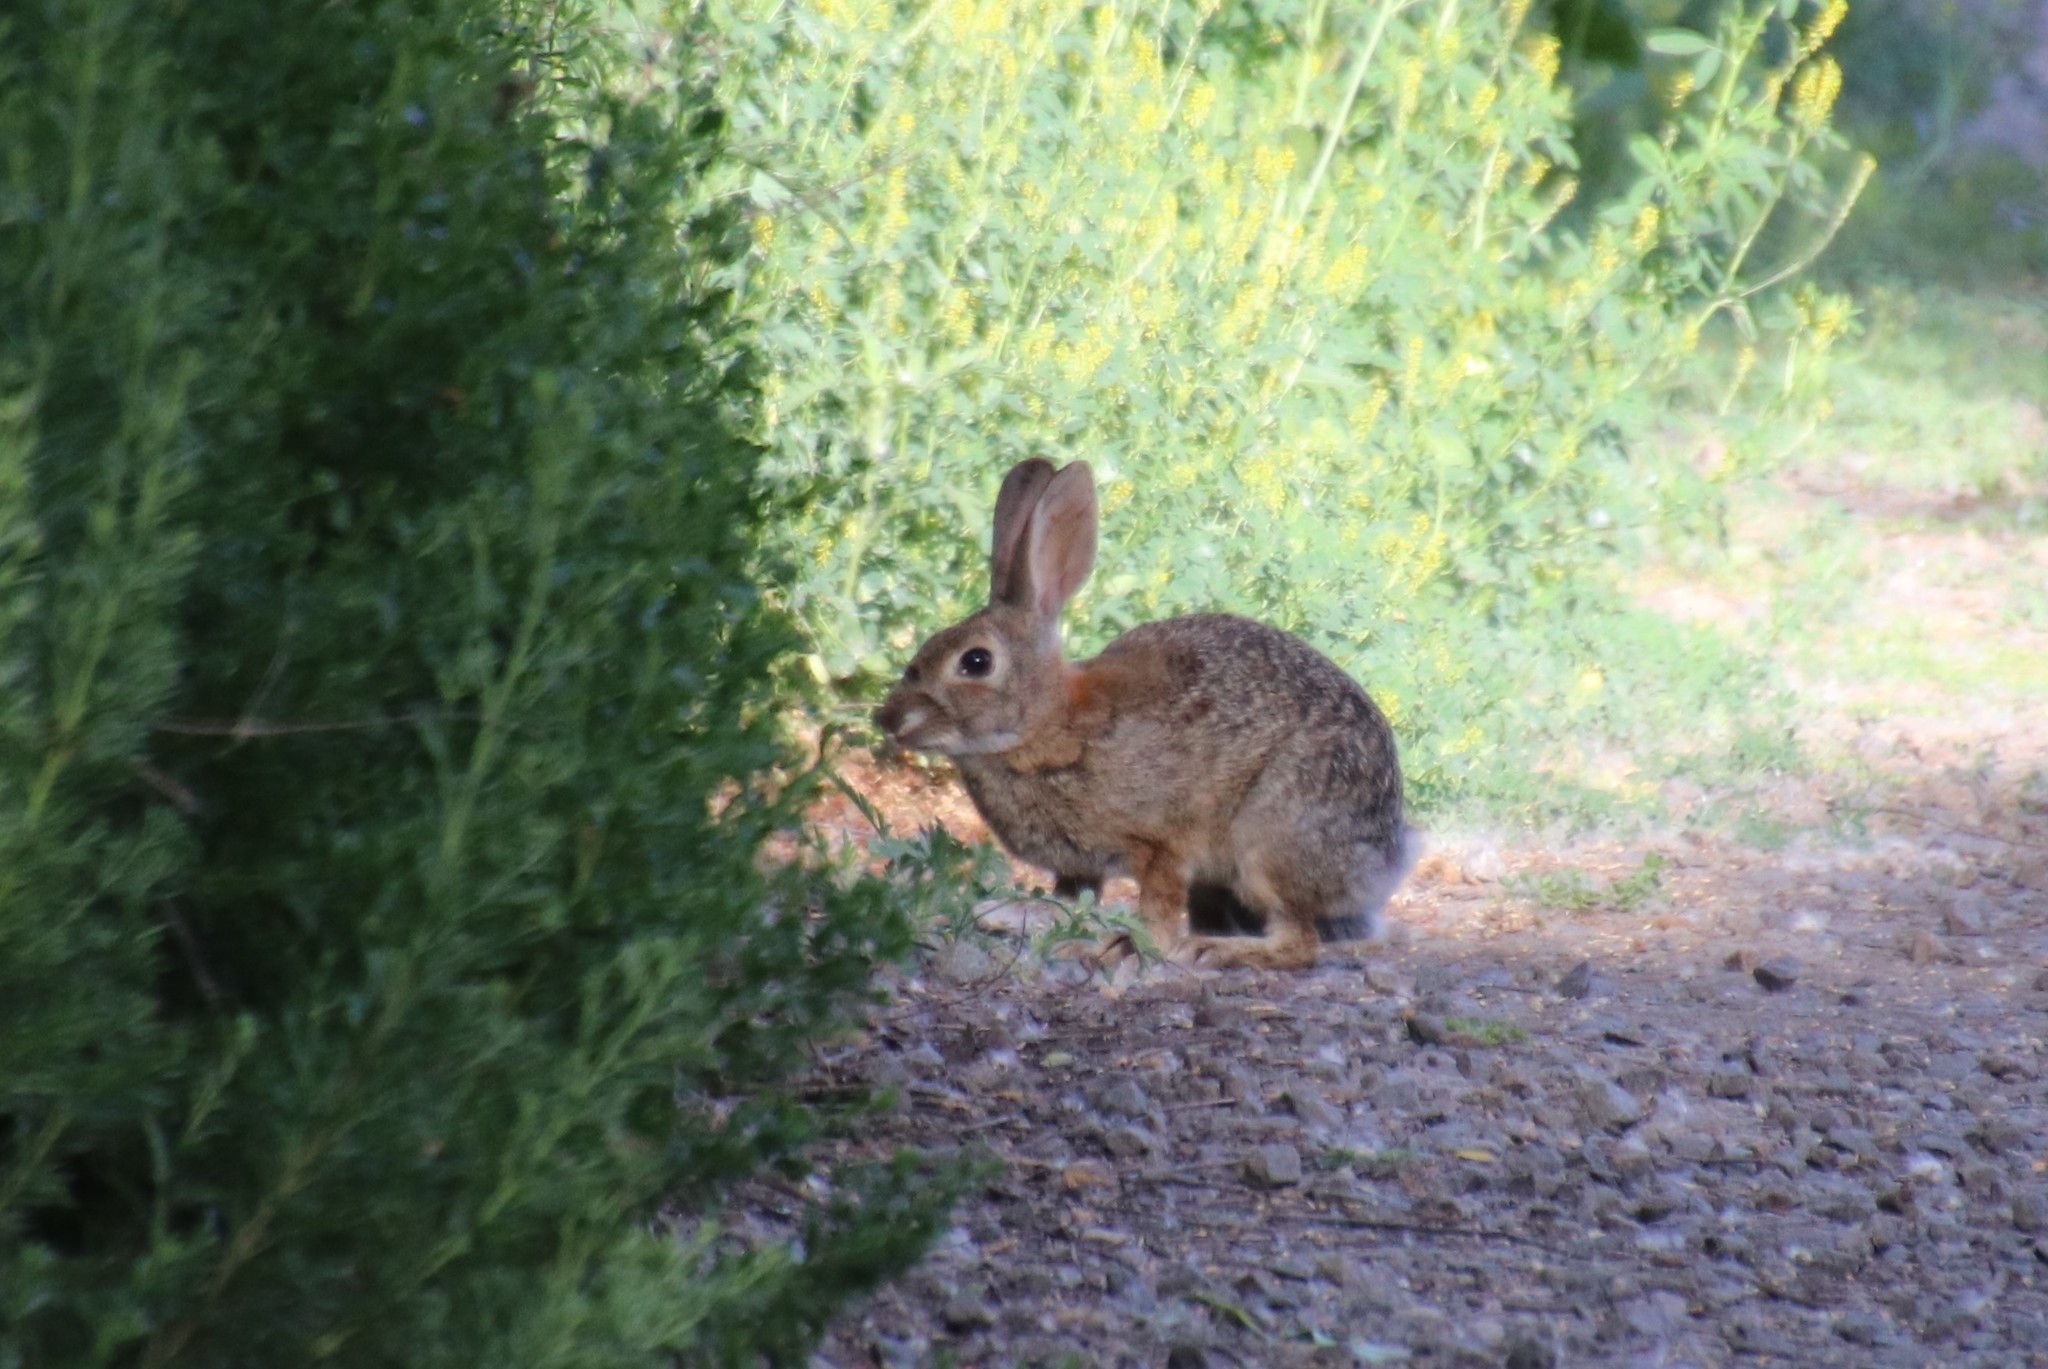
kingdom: Animalia
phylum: Chordata
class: Mammalia
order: Lagomorpha
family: Leporidae
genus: Sylvilagus
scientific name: Sylvilagus audubonii
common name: Desert cottontail
